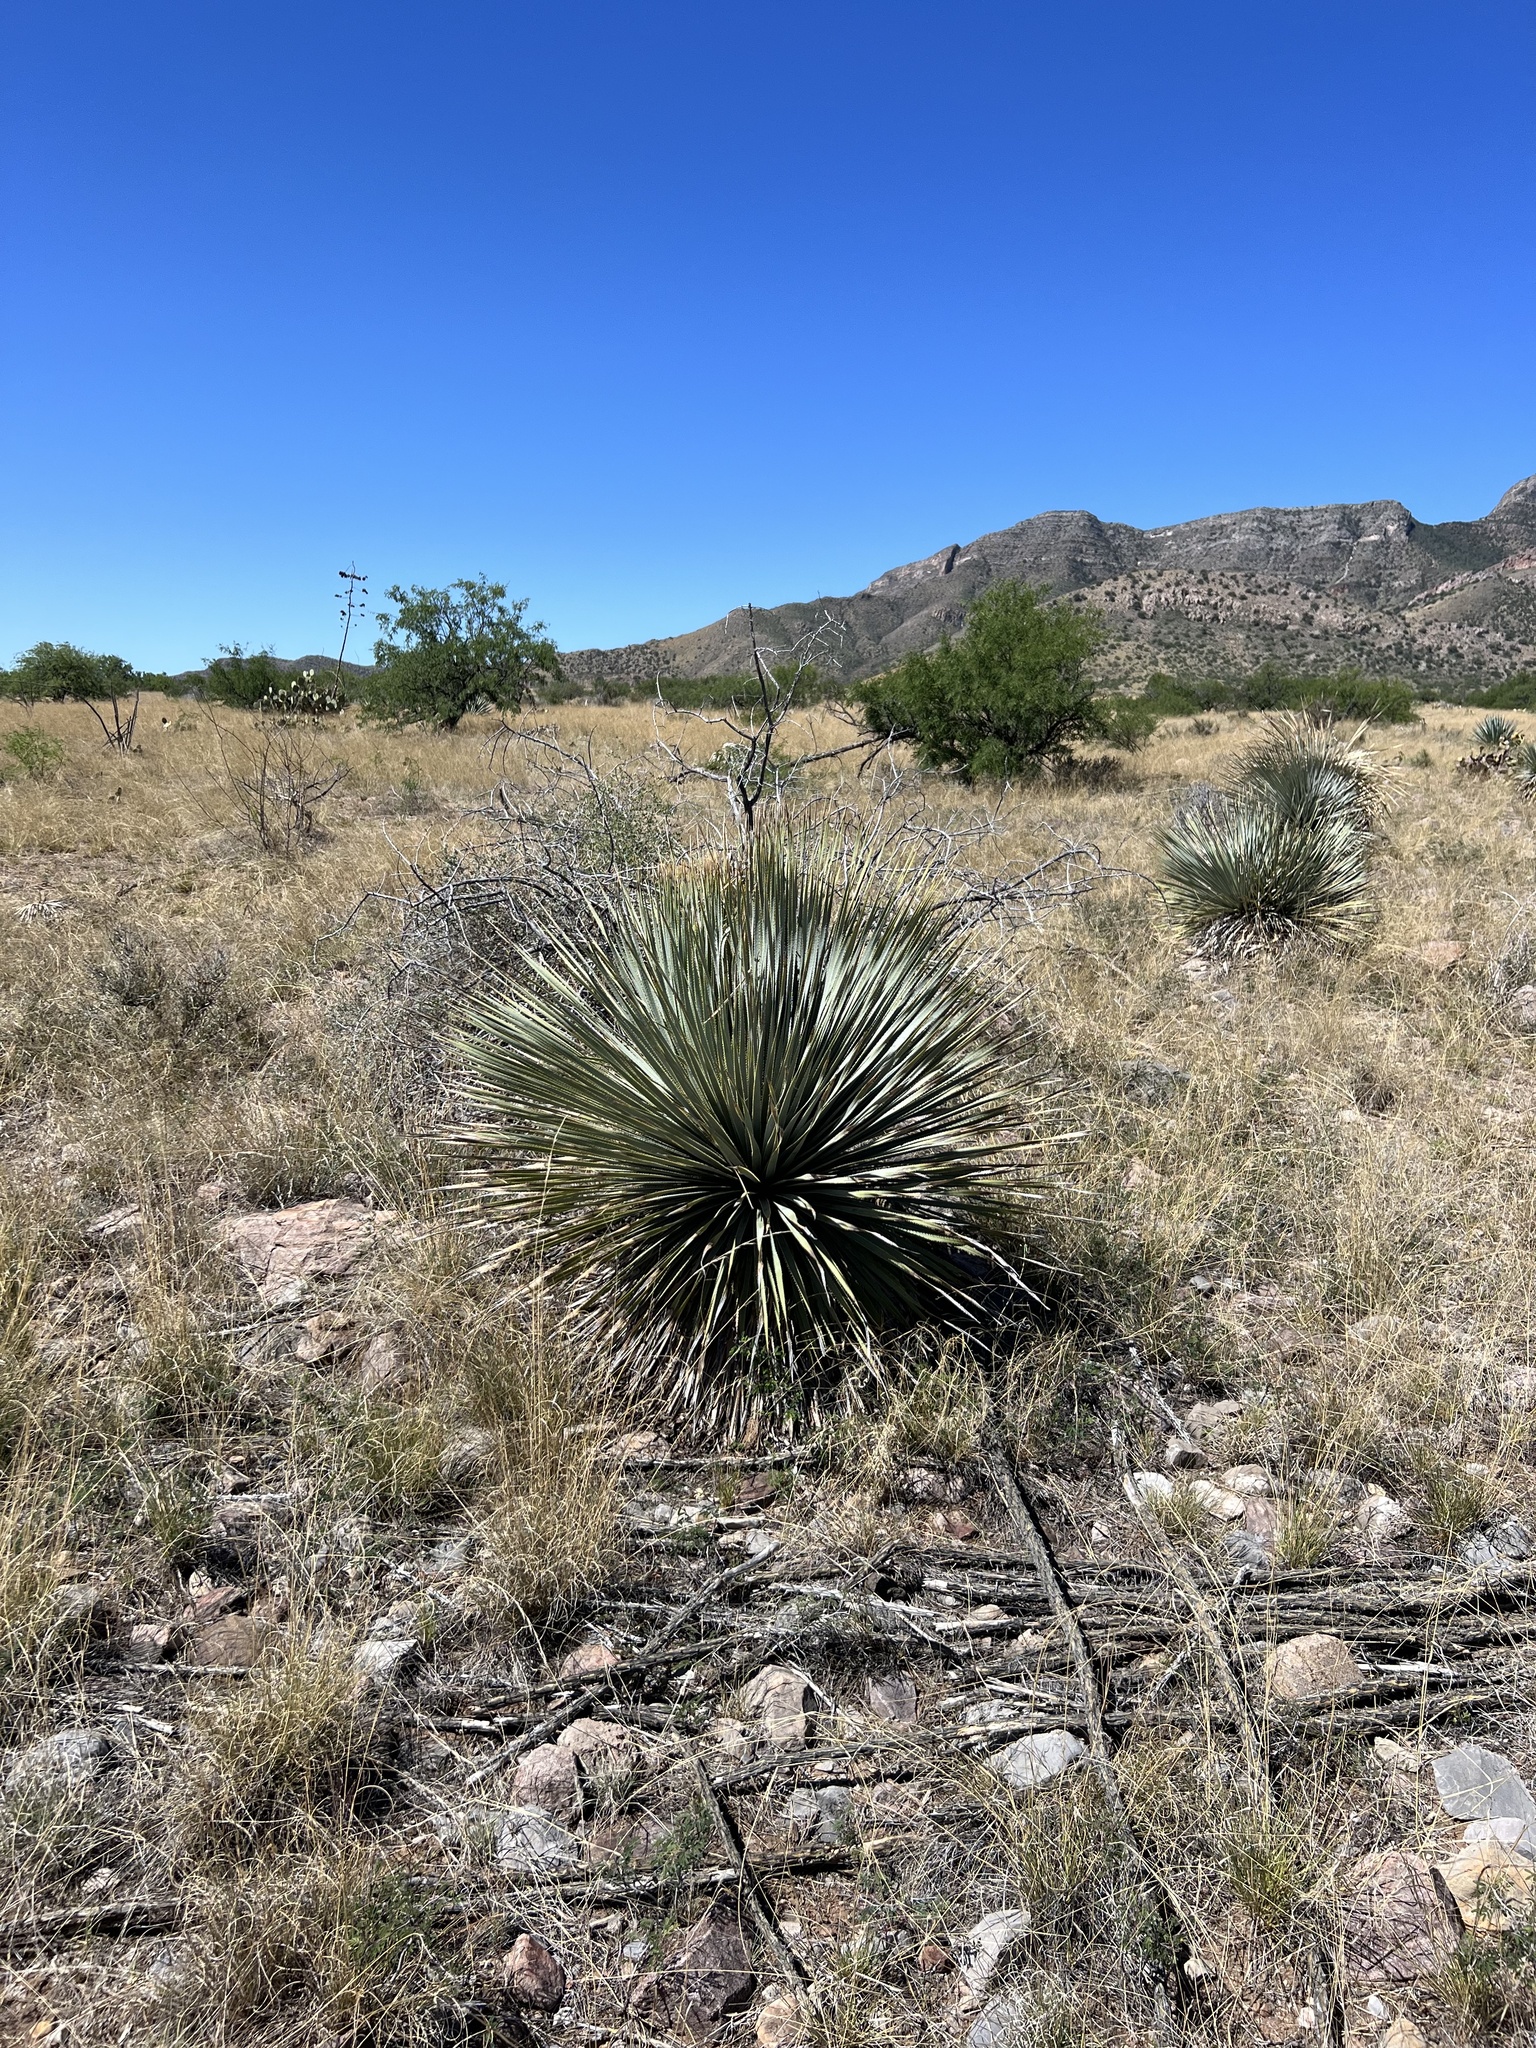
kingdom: Plantae
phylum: Tracheophyta
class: Liliopsida
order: Asparagales
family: Asparagaceae
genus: Dasylirion
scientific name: Dasylirion wheeleri
